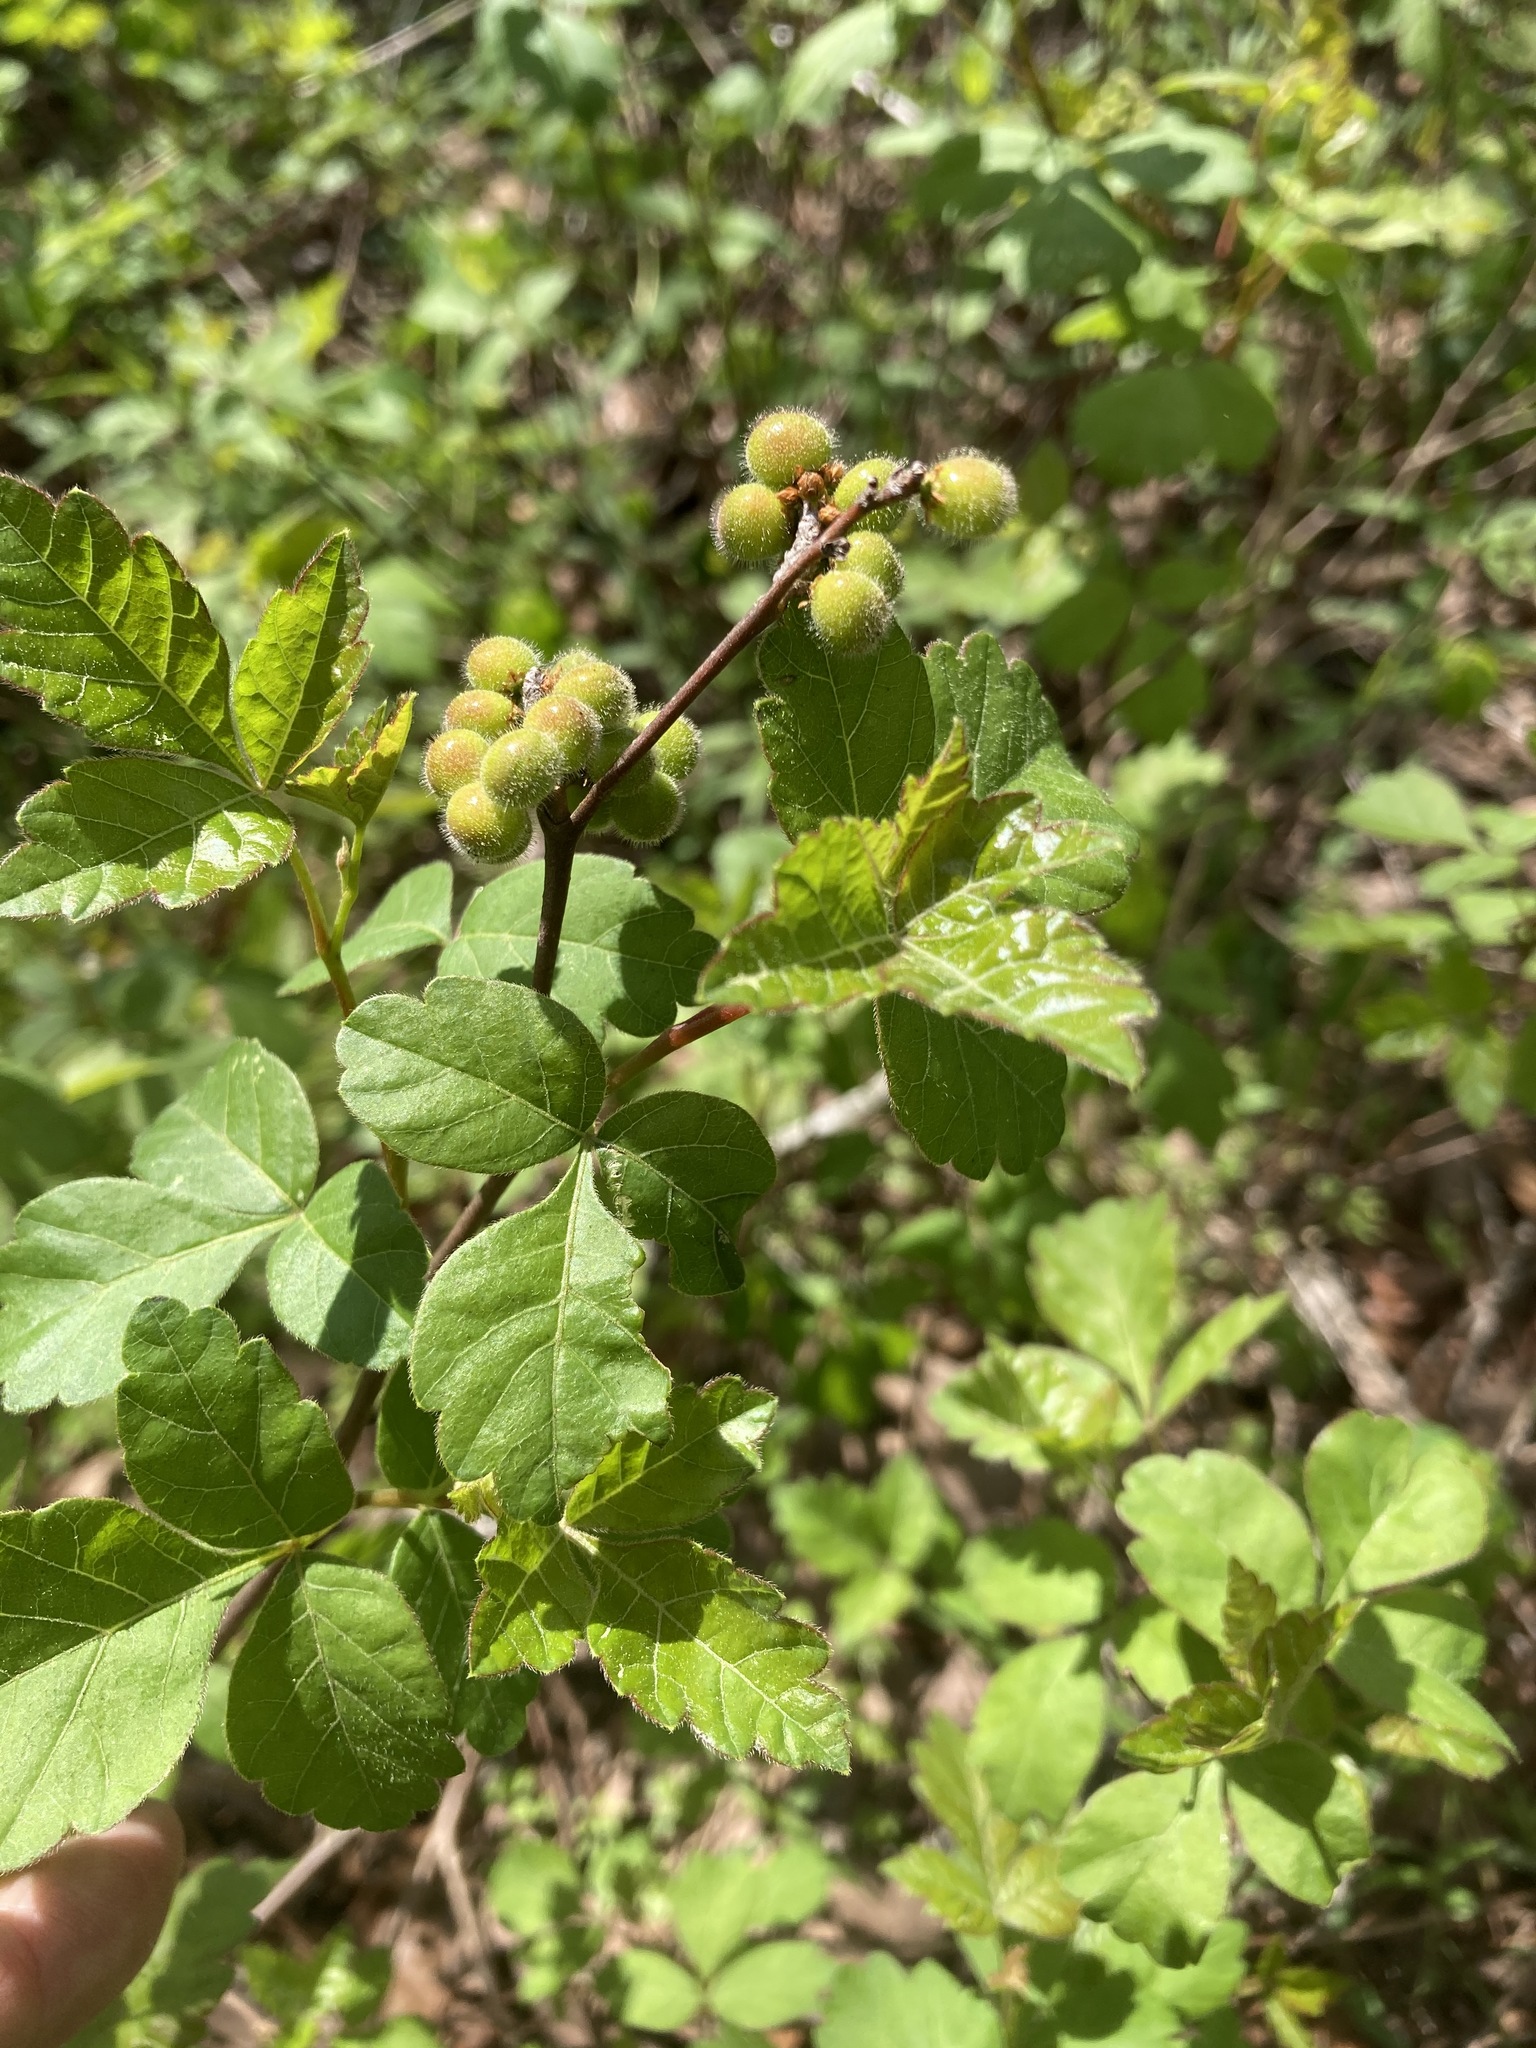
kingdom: Plantae
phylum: Tracheophyta
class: Magnoliopsida
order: Sapindales
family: Anacardiaceae
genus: Rhus
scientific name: Rhus aromatica
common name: Aromatic sumac
